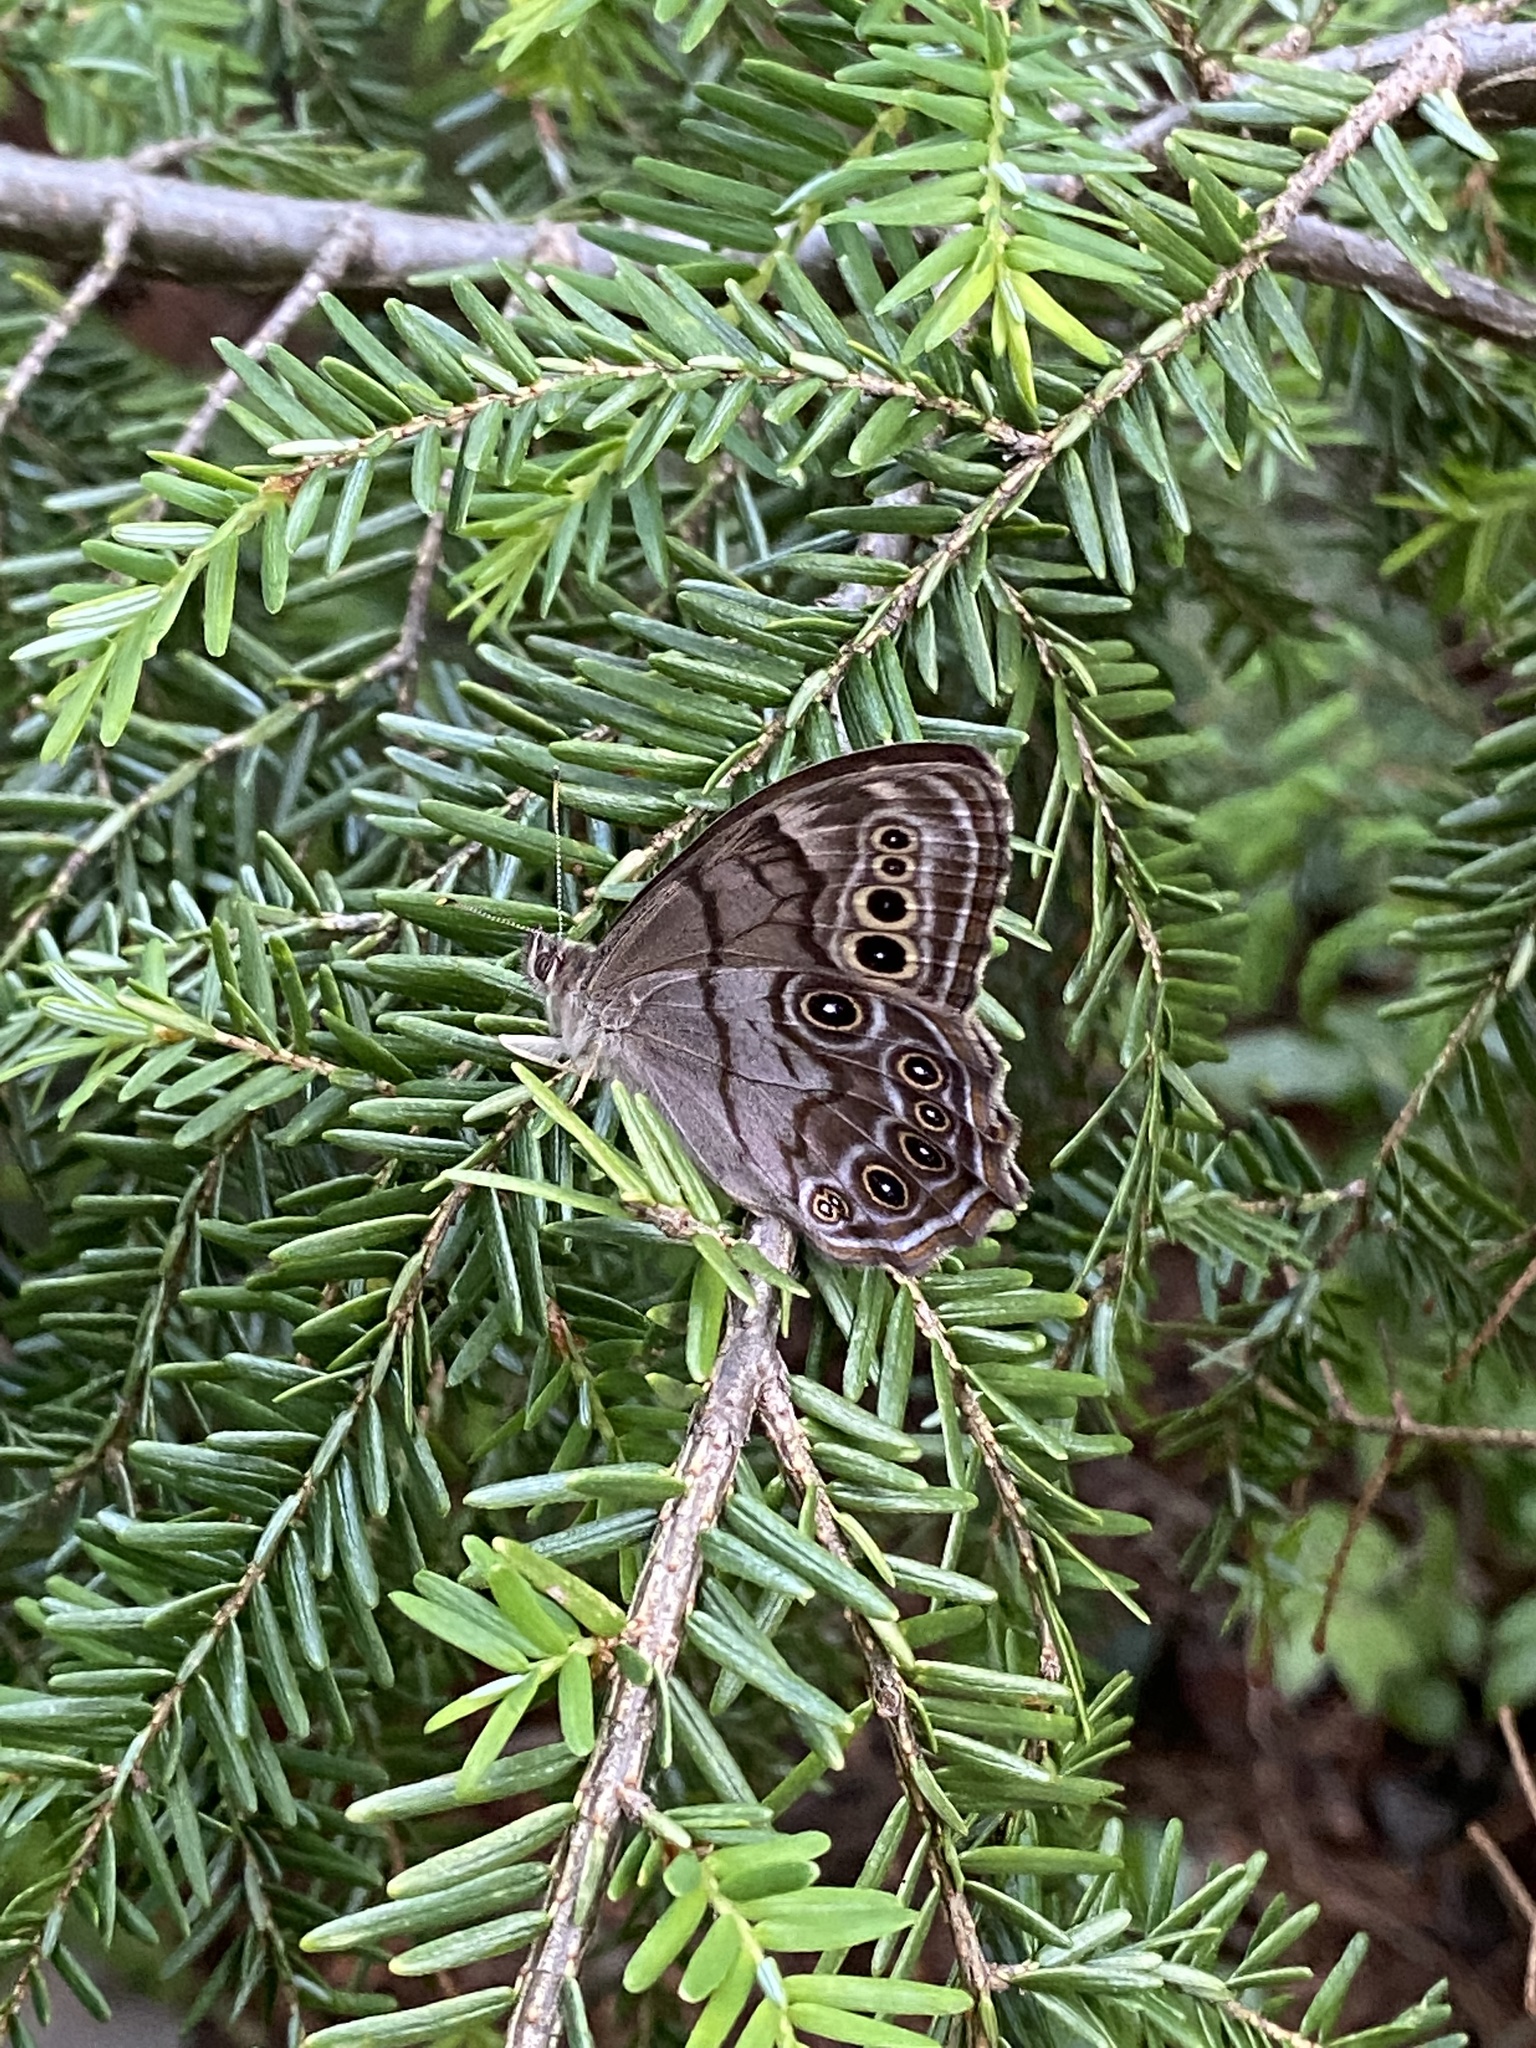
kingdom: Animalia
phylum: Arthropoda
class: Insecta
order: Lepidoptera
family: Nymphalidae
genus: Lethe
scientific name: Lethe anthedon
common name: Northern pearly-eye
